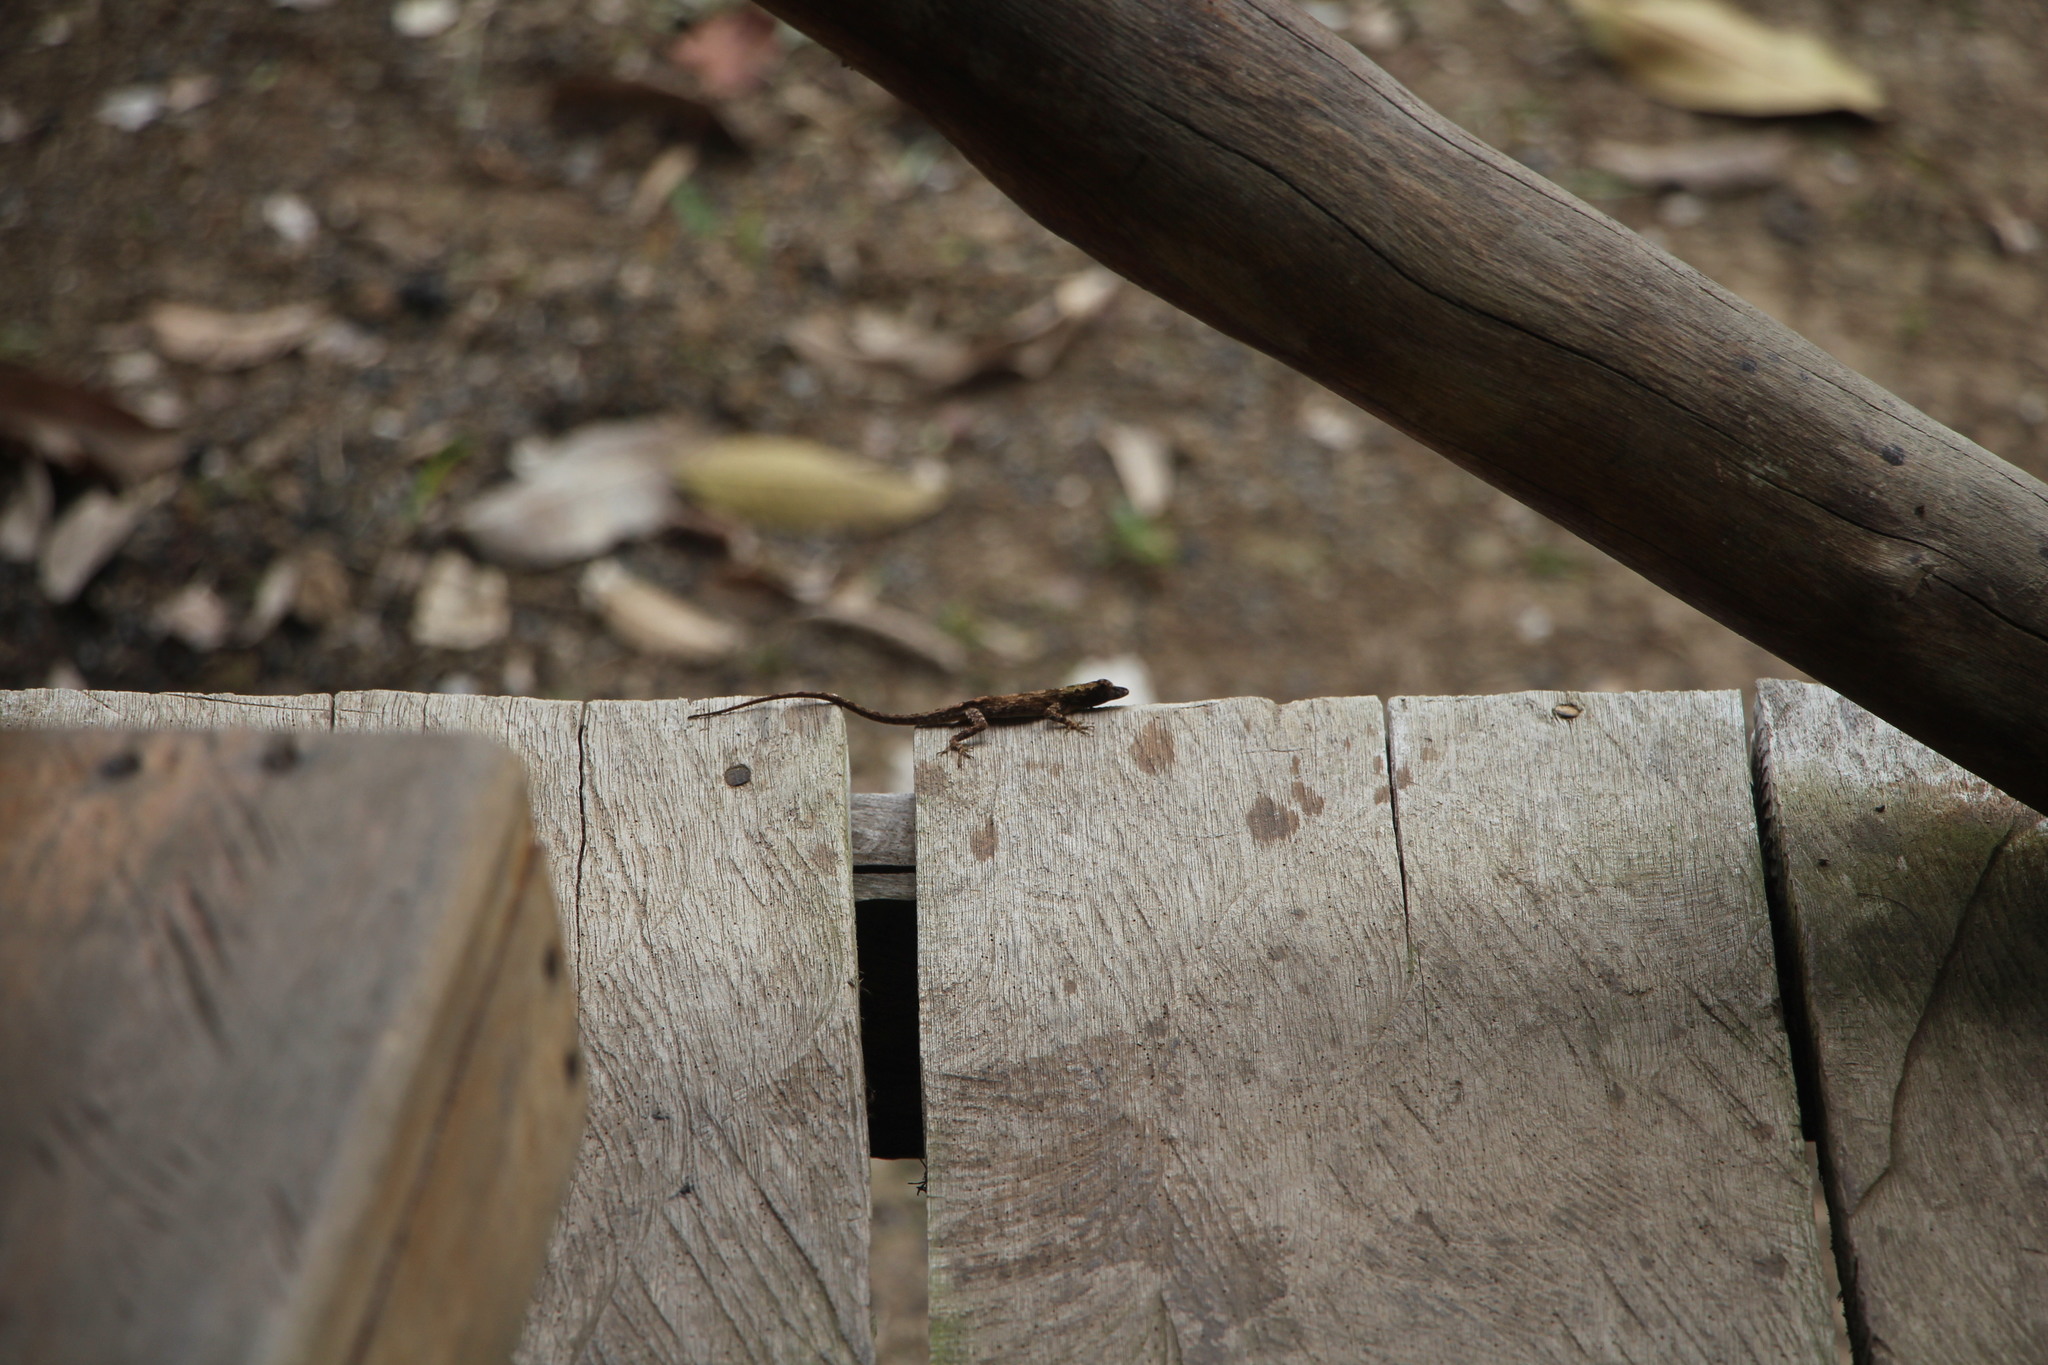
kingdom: Animalia
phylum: Chordata
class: Squamata
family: Dactyloidae
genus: Anolis
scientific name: Anolis ortonii
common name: Bark anole
